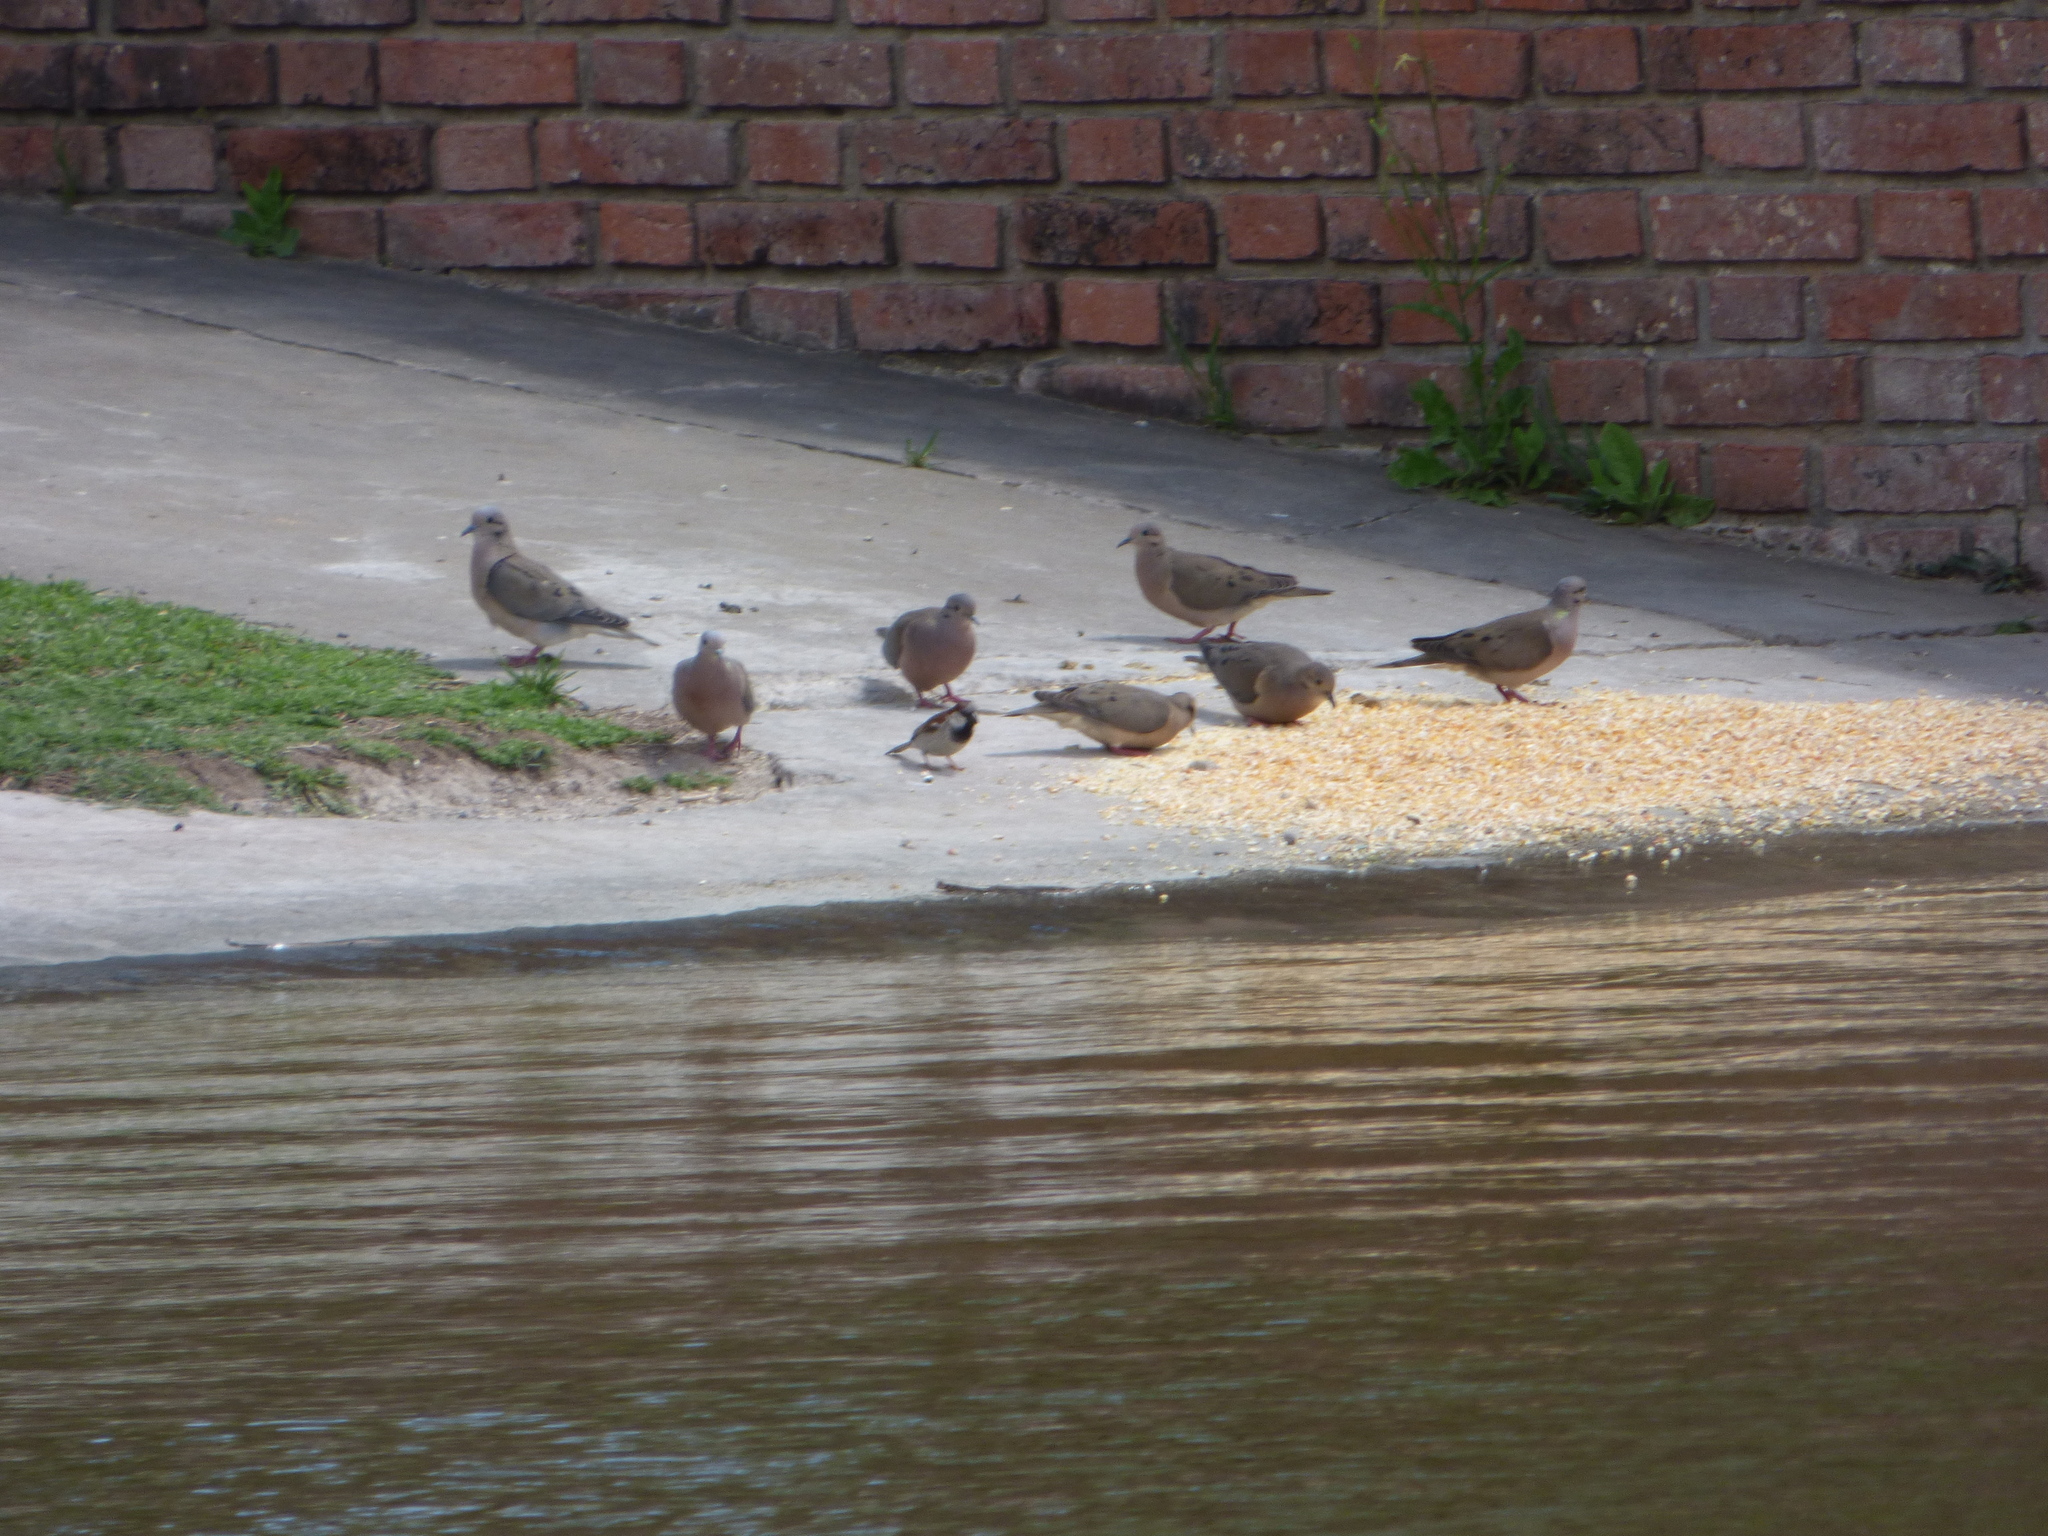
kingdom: Animalia
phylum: Chordata
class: Aves
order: Passeriformes
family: Passeridae
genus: Passer
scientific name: Passer domesticus
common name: House sparrow
